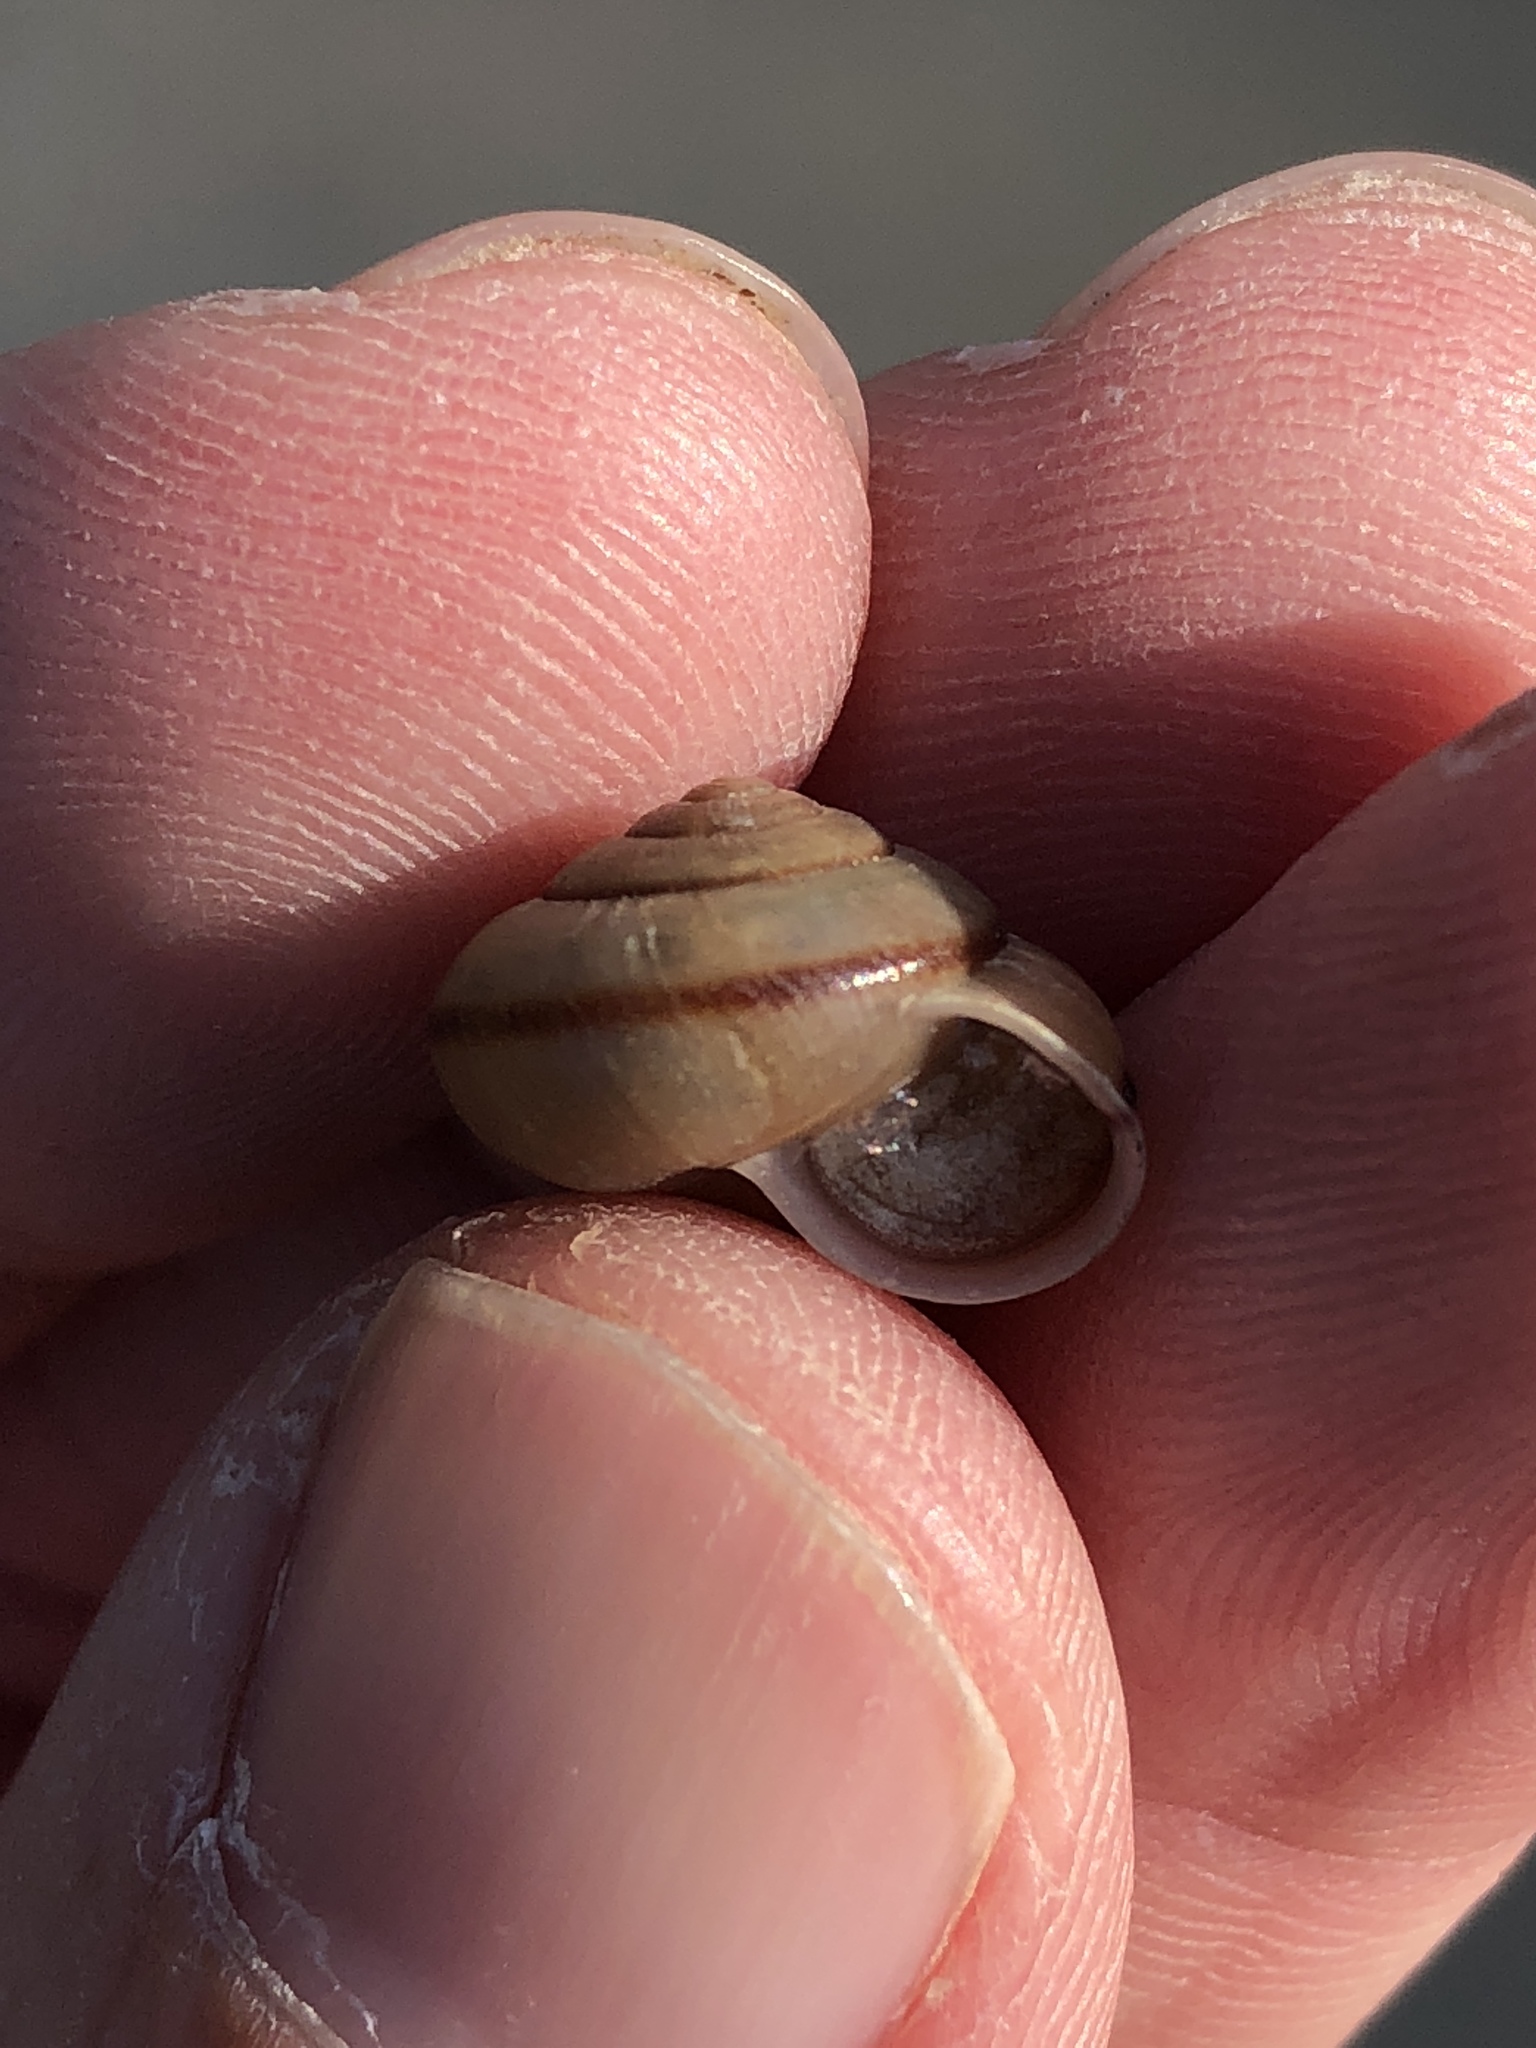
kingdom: Animalia
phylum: Mollusca
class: Gastropoda
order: Stylommatophora
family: Camaenidae
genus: Bradybaena
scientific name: Bradybaena similaris
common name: Asian trampsnail
